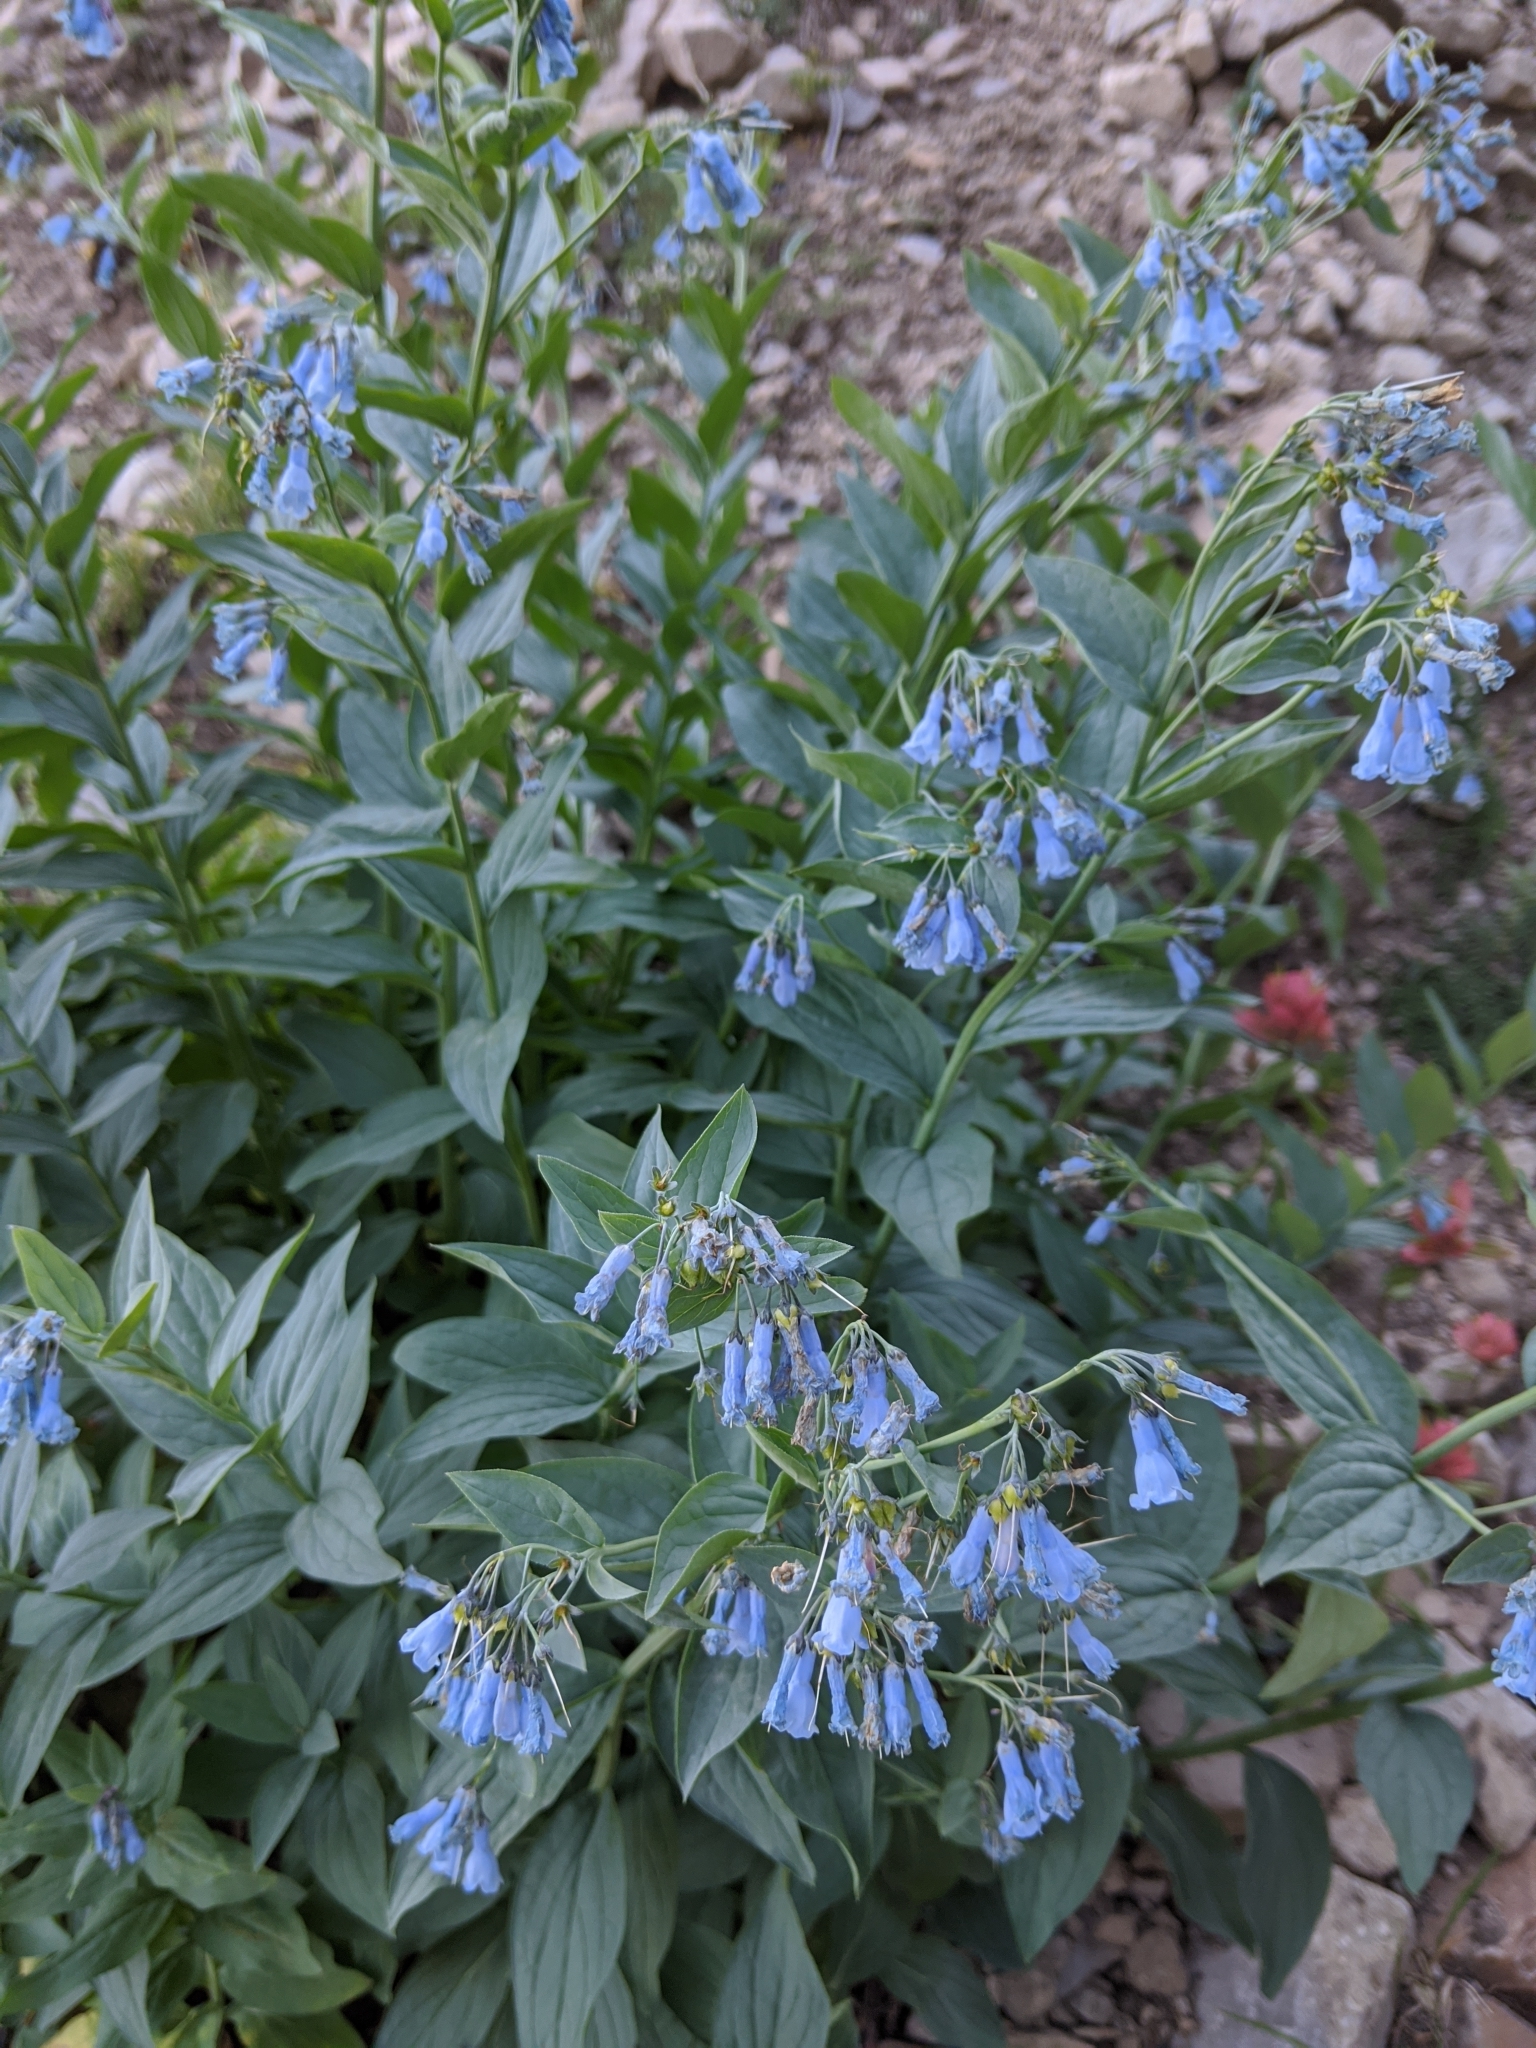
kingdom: Plantae
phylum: Tracheophyta
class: Magnoliopsida
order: Boraginales
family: Boraginaceae
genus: Mertensia
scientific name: Mertensia ciliata
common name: Tall chiming-bells
